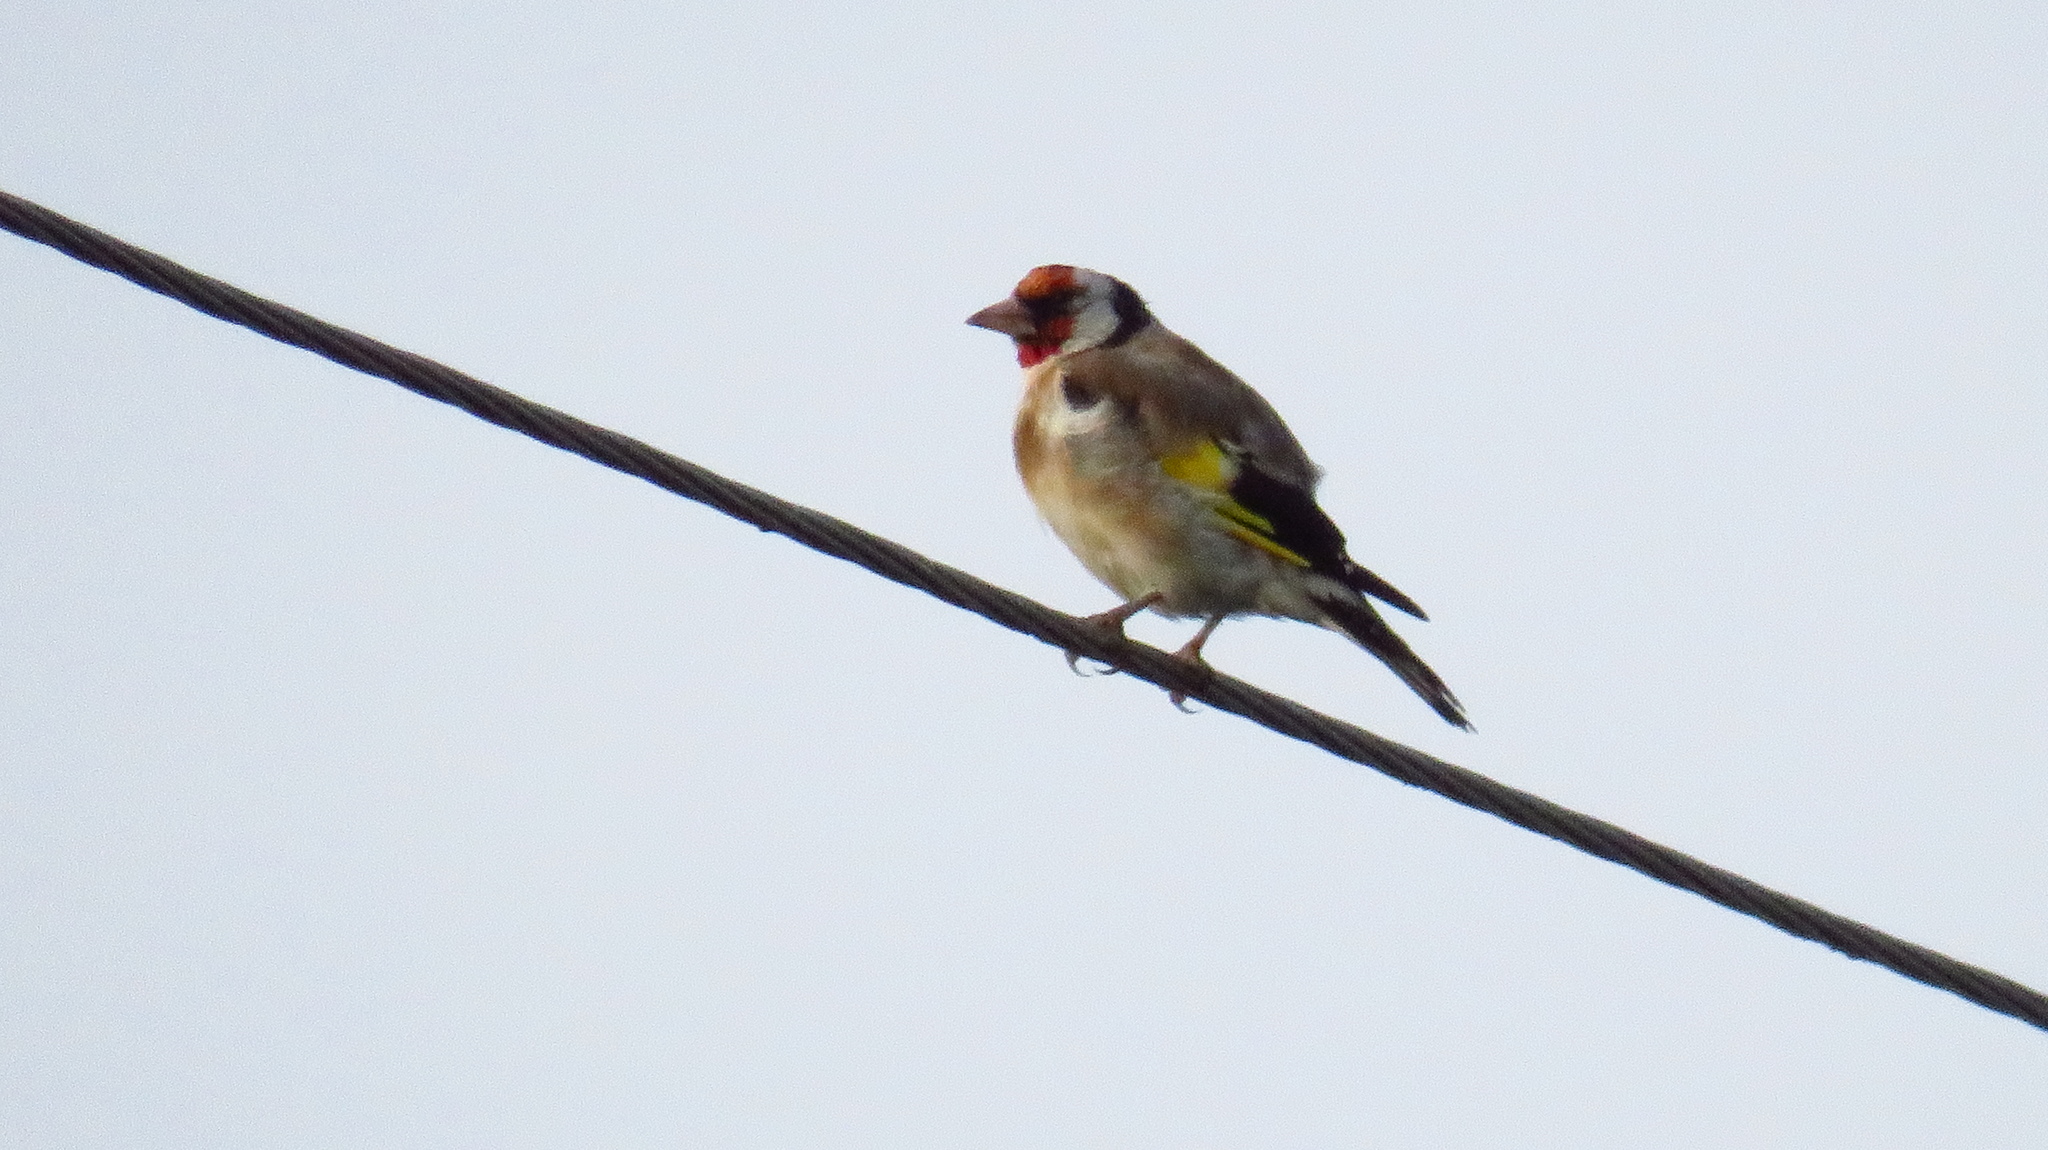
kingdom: Animalia
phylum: Chordata
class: Aves
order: Passeriformes
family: Fringillidae
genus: Carduelis
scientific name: Carduelis carduelis
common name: European goldfinch
